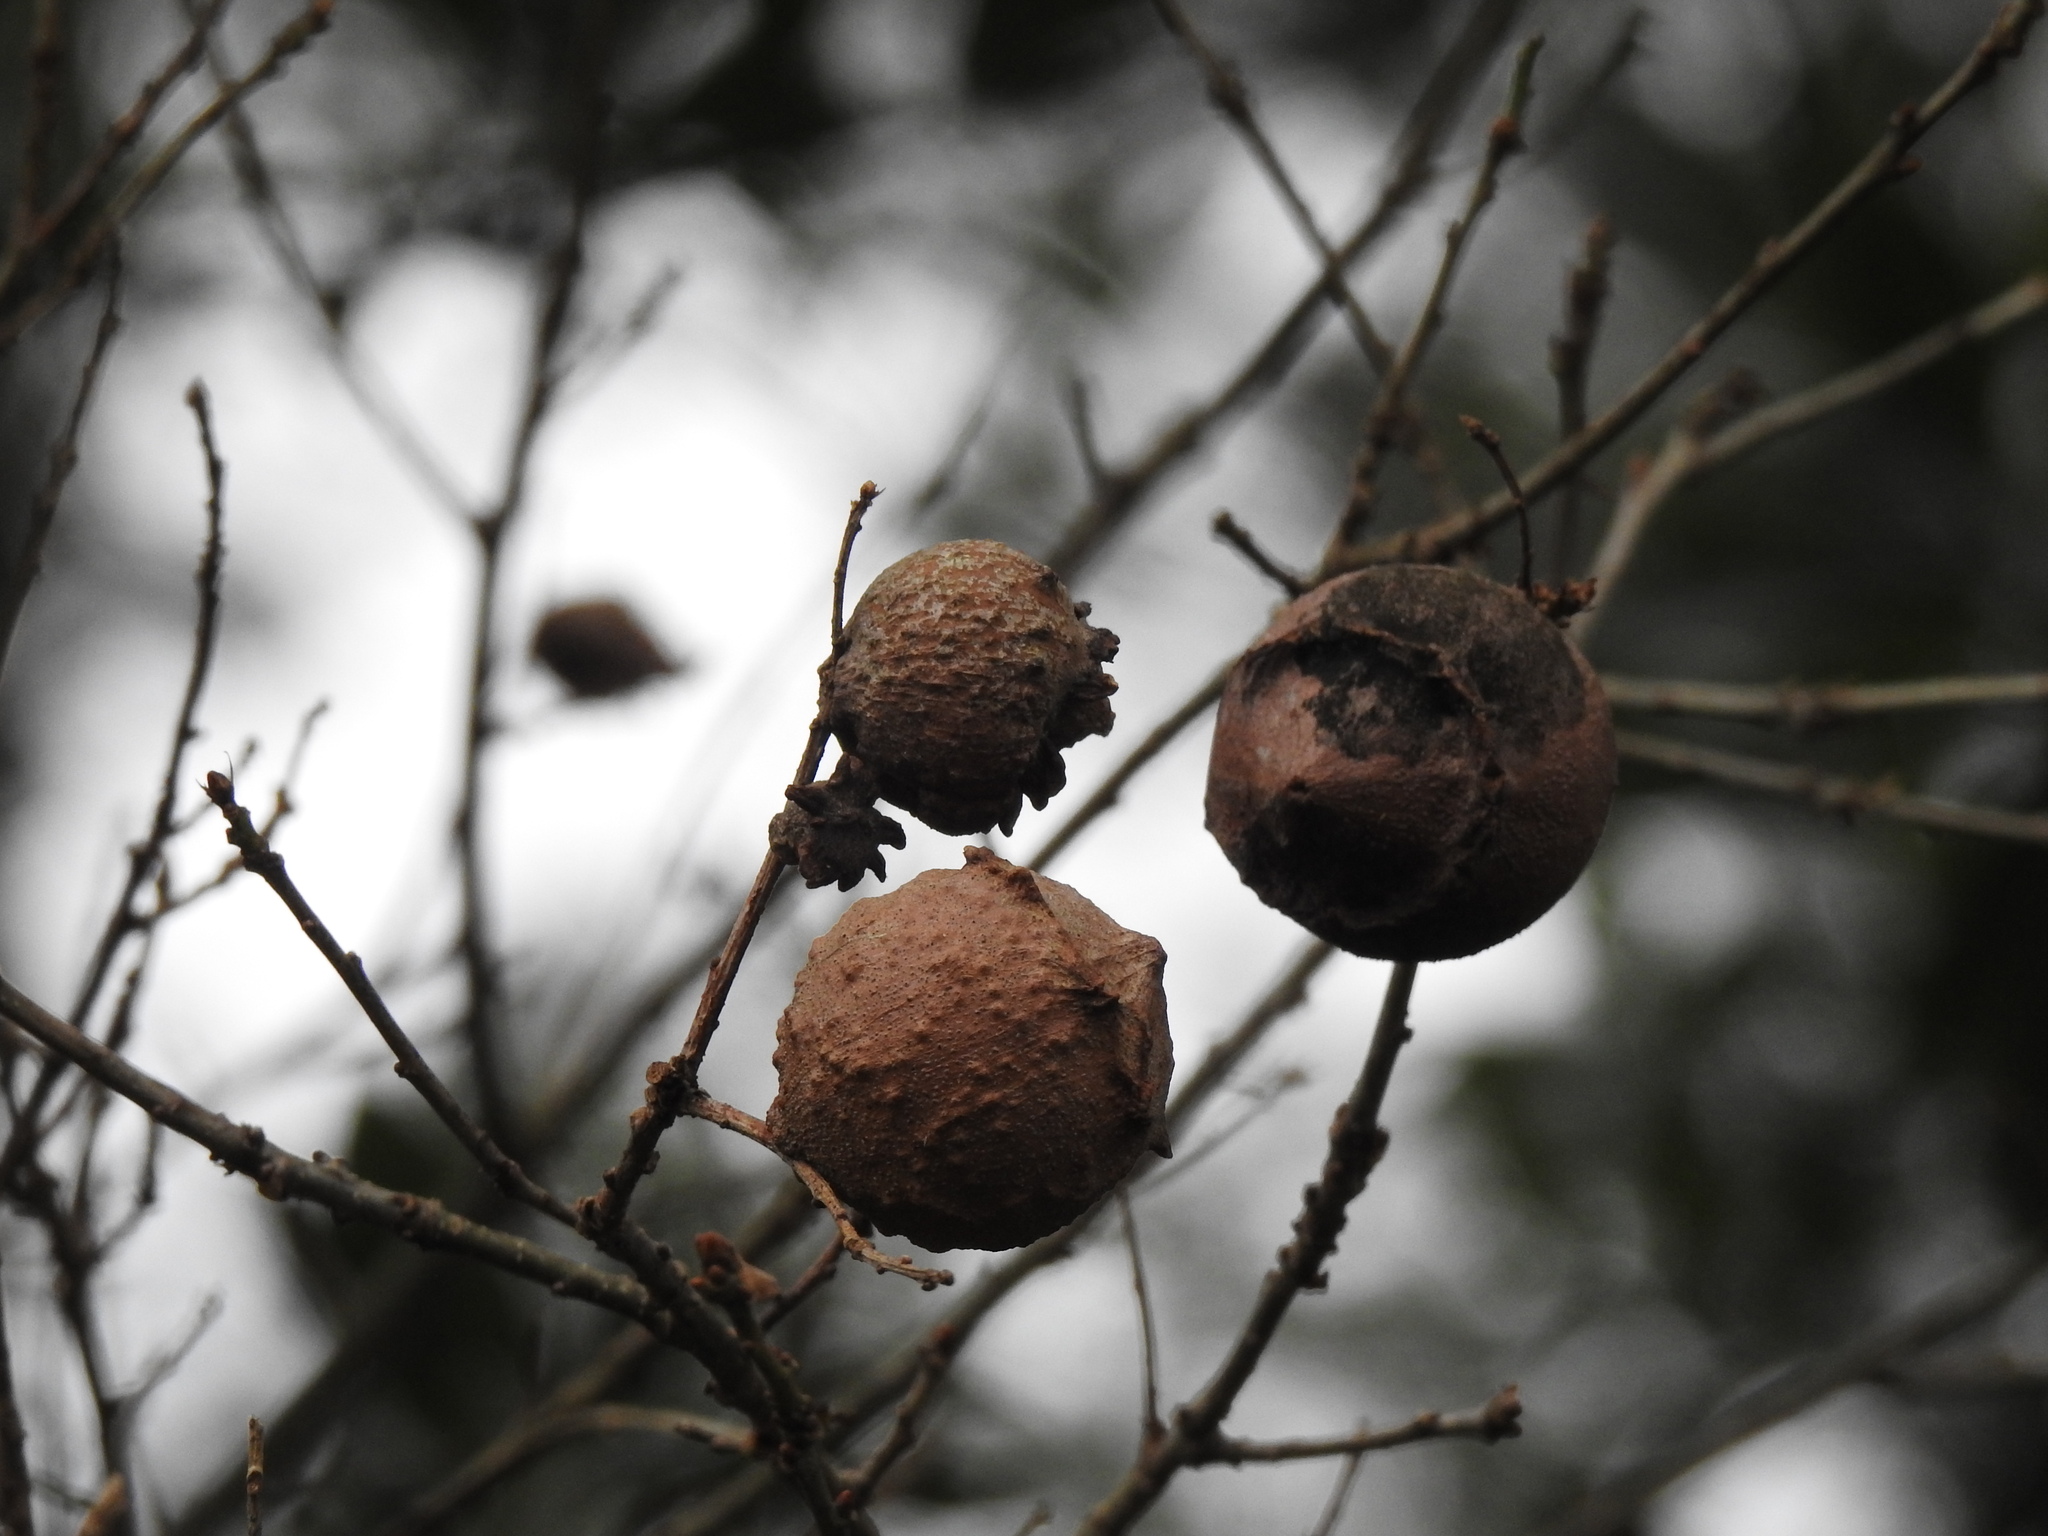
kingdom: Animalia
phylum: Arthropoda
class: Insecta
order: Hymenoptera
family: Cynipidae
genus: Andricus
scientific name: Andricus quercustozae
